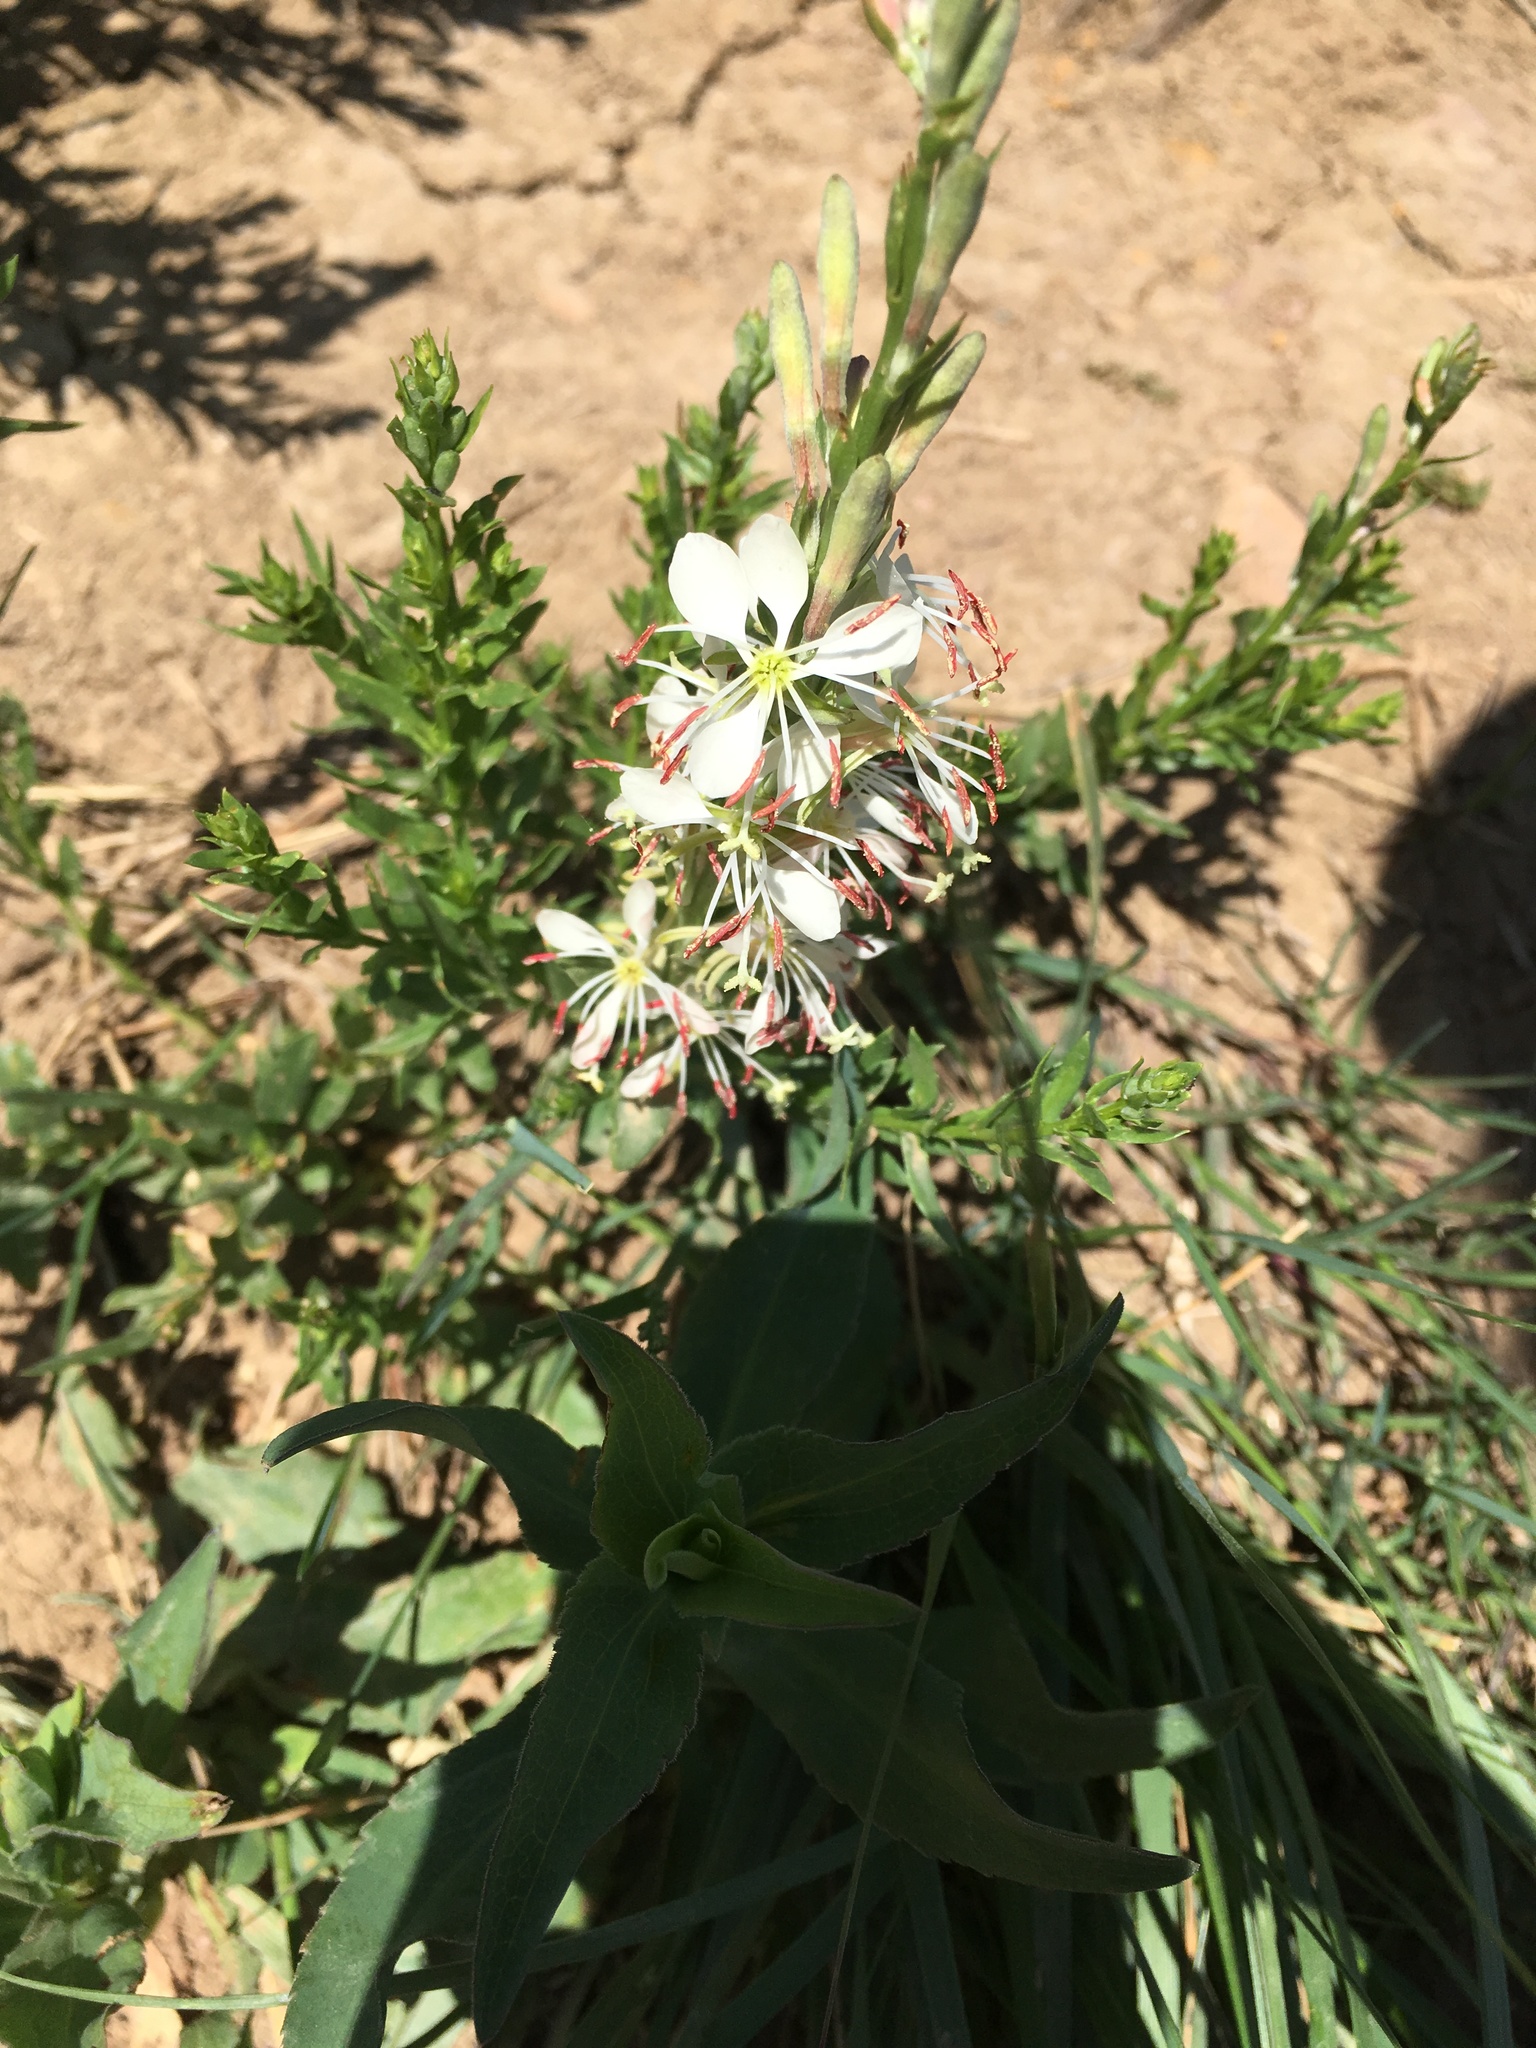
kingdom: Plantae
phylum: Tracheophyta
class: Magnoliopsida
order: Myrtales
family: Onagraceae
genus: Oenothera
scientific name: Oenothera suffrutescens
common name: Scarlet beeblossom
